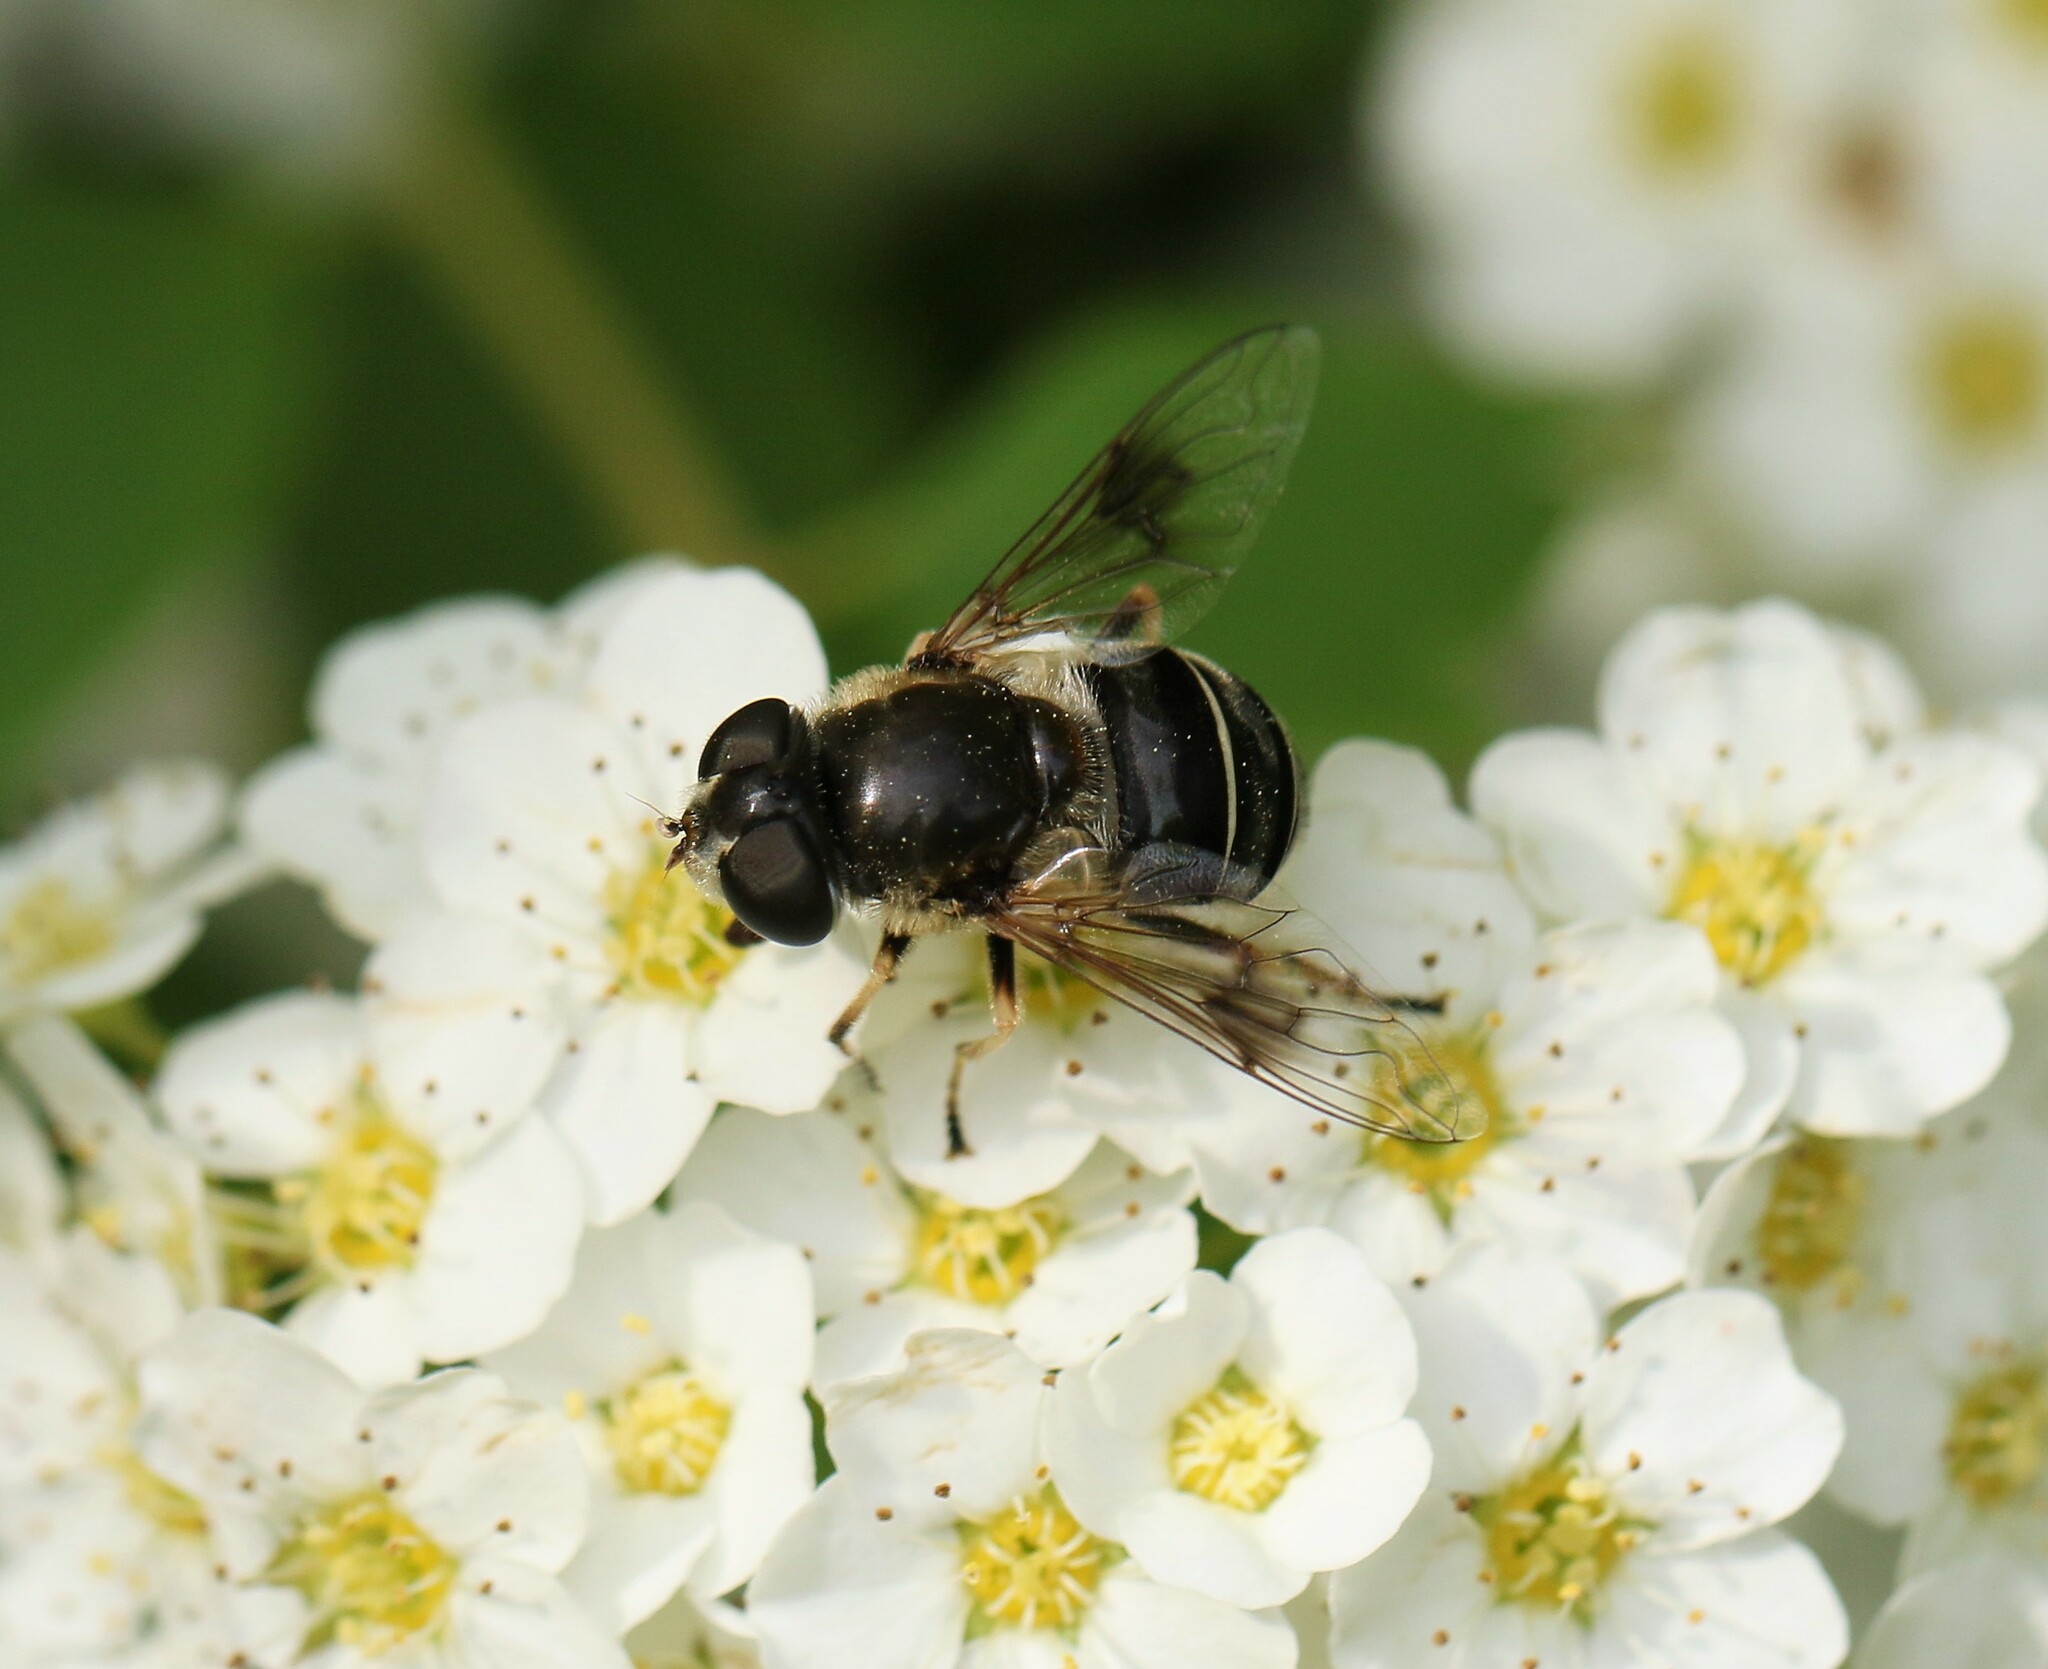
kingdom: Animalia
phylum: Arthropoda
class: Insecta
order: Diptera
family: Syrphidae
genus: Eristalis
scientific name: Eristalis obscura
